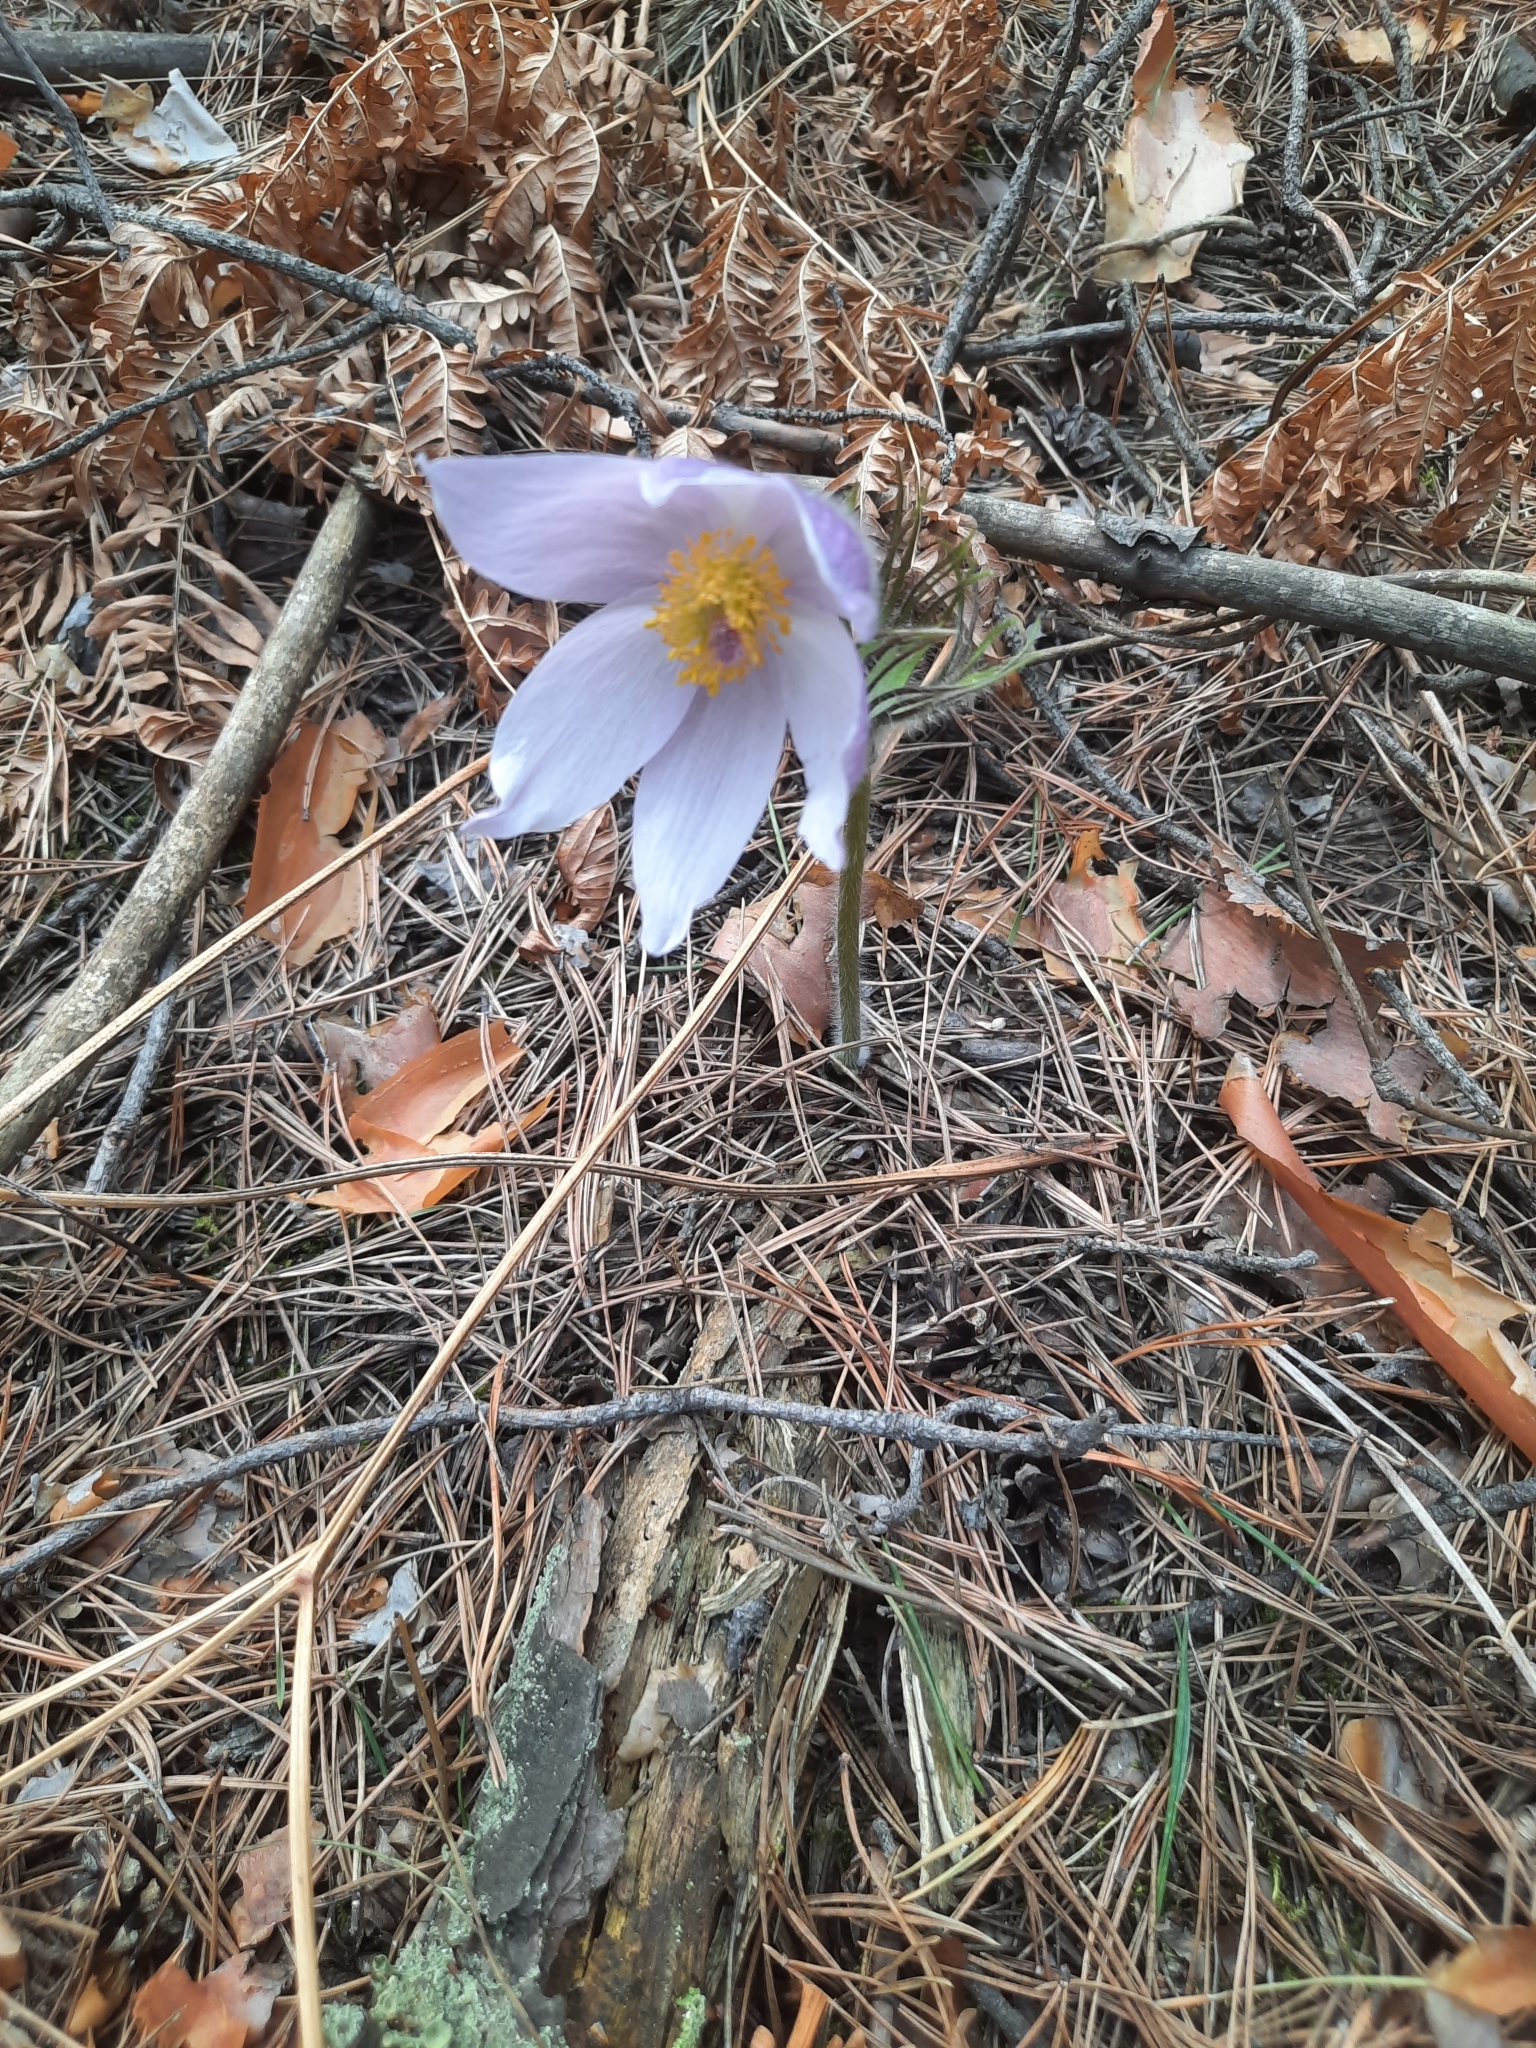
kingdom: Plantae
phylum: Tracheophyta
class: Magnoliopsida
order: Ranunculales
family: Ranunculaceae
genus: Pulsatilla
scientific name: Pulsatilla patens
